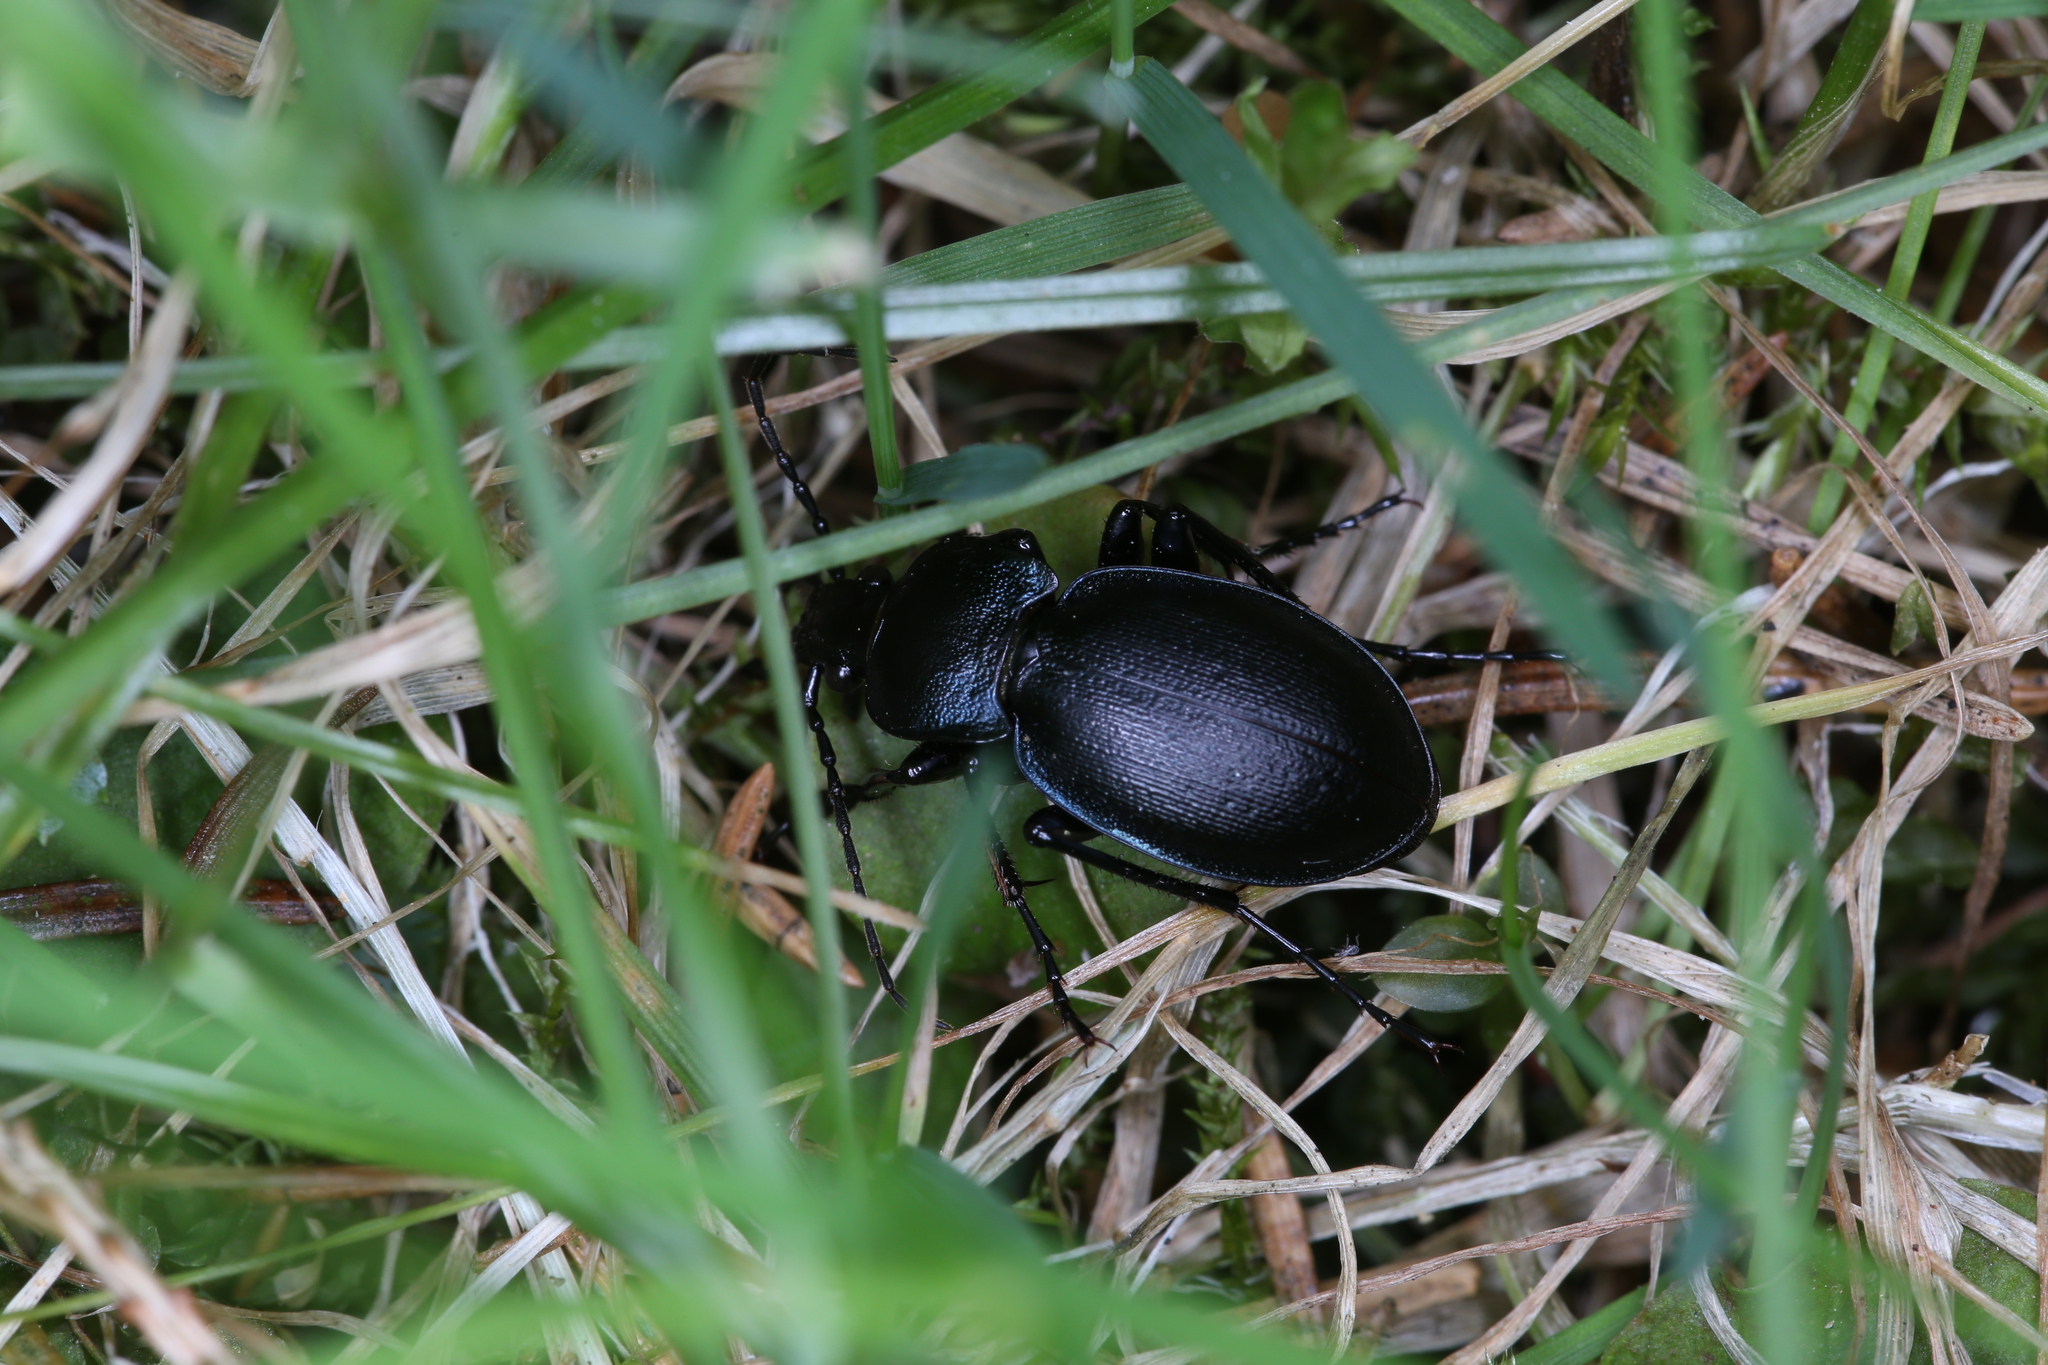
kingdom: Animalia
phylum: Arthropoda
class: Insecta
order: Coleoptera
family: Carabidae
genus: Carabus
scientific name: Carabus convexus
